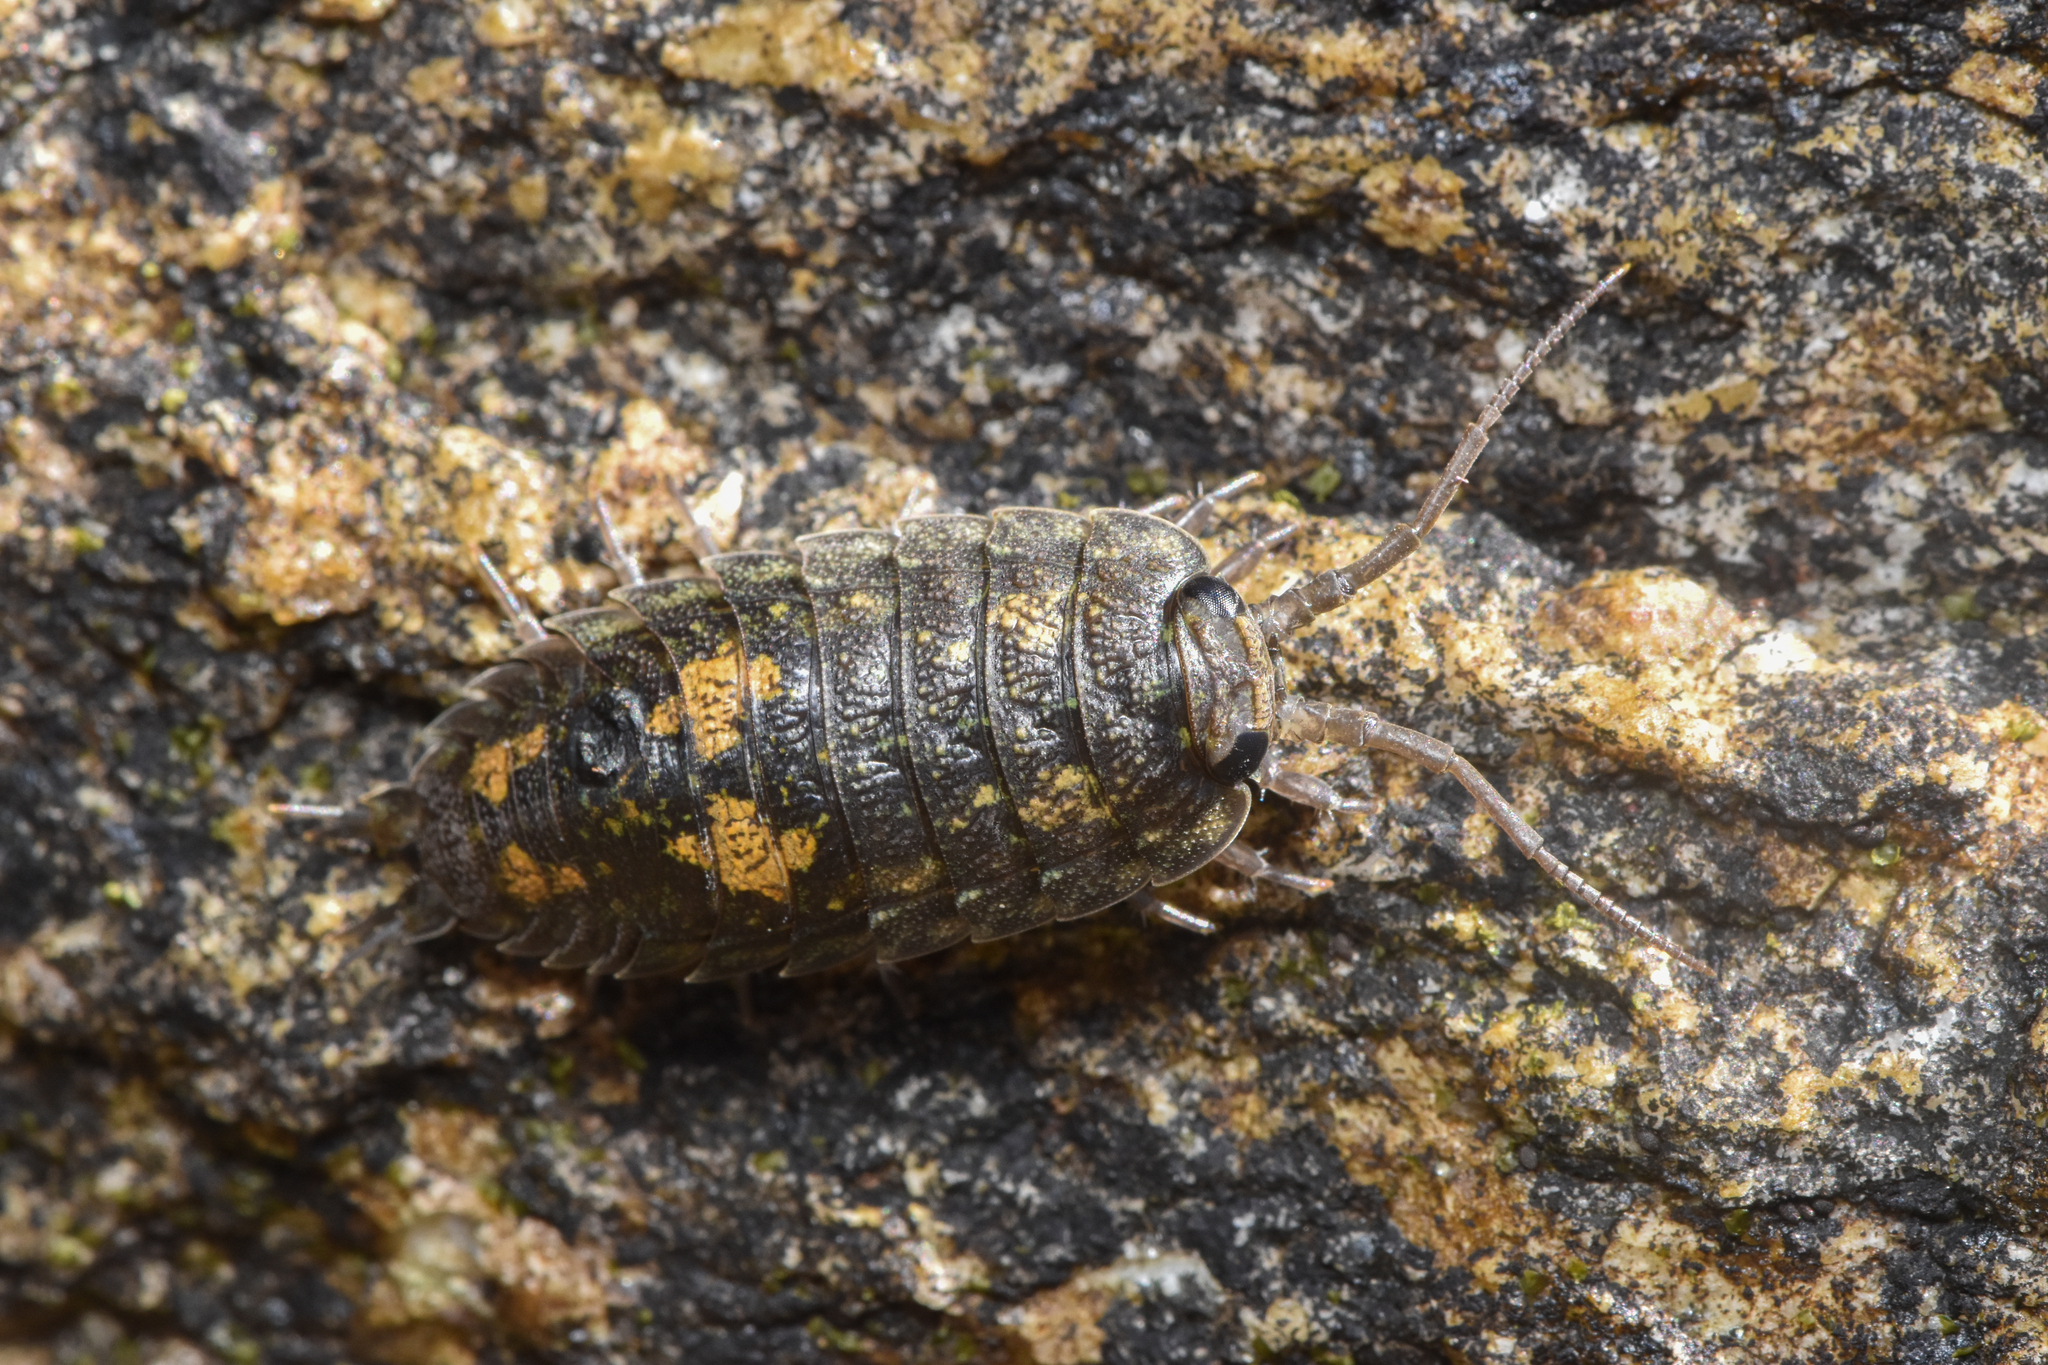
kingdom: Animalia
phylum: Arthropoda
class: Malacostraca
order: Isopoda
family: Ligiidae
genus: Ligia
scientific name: Ligia pallasii
